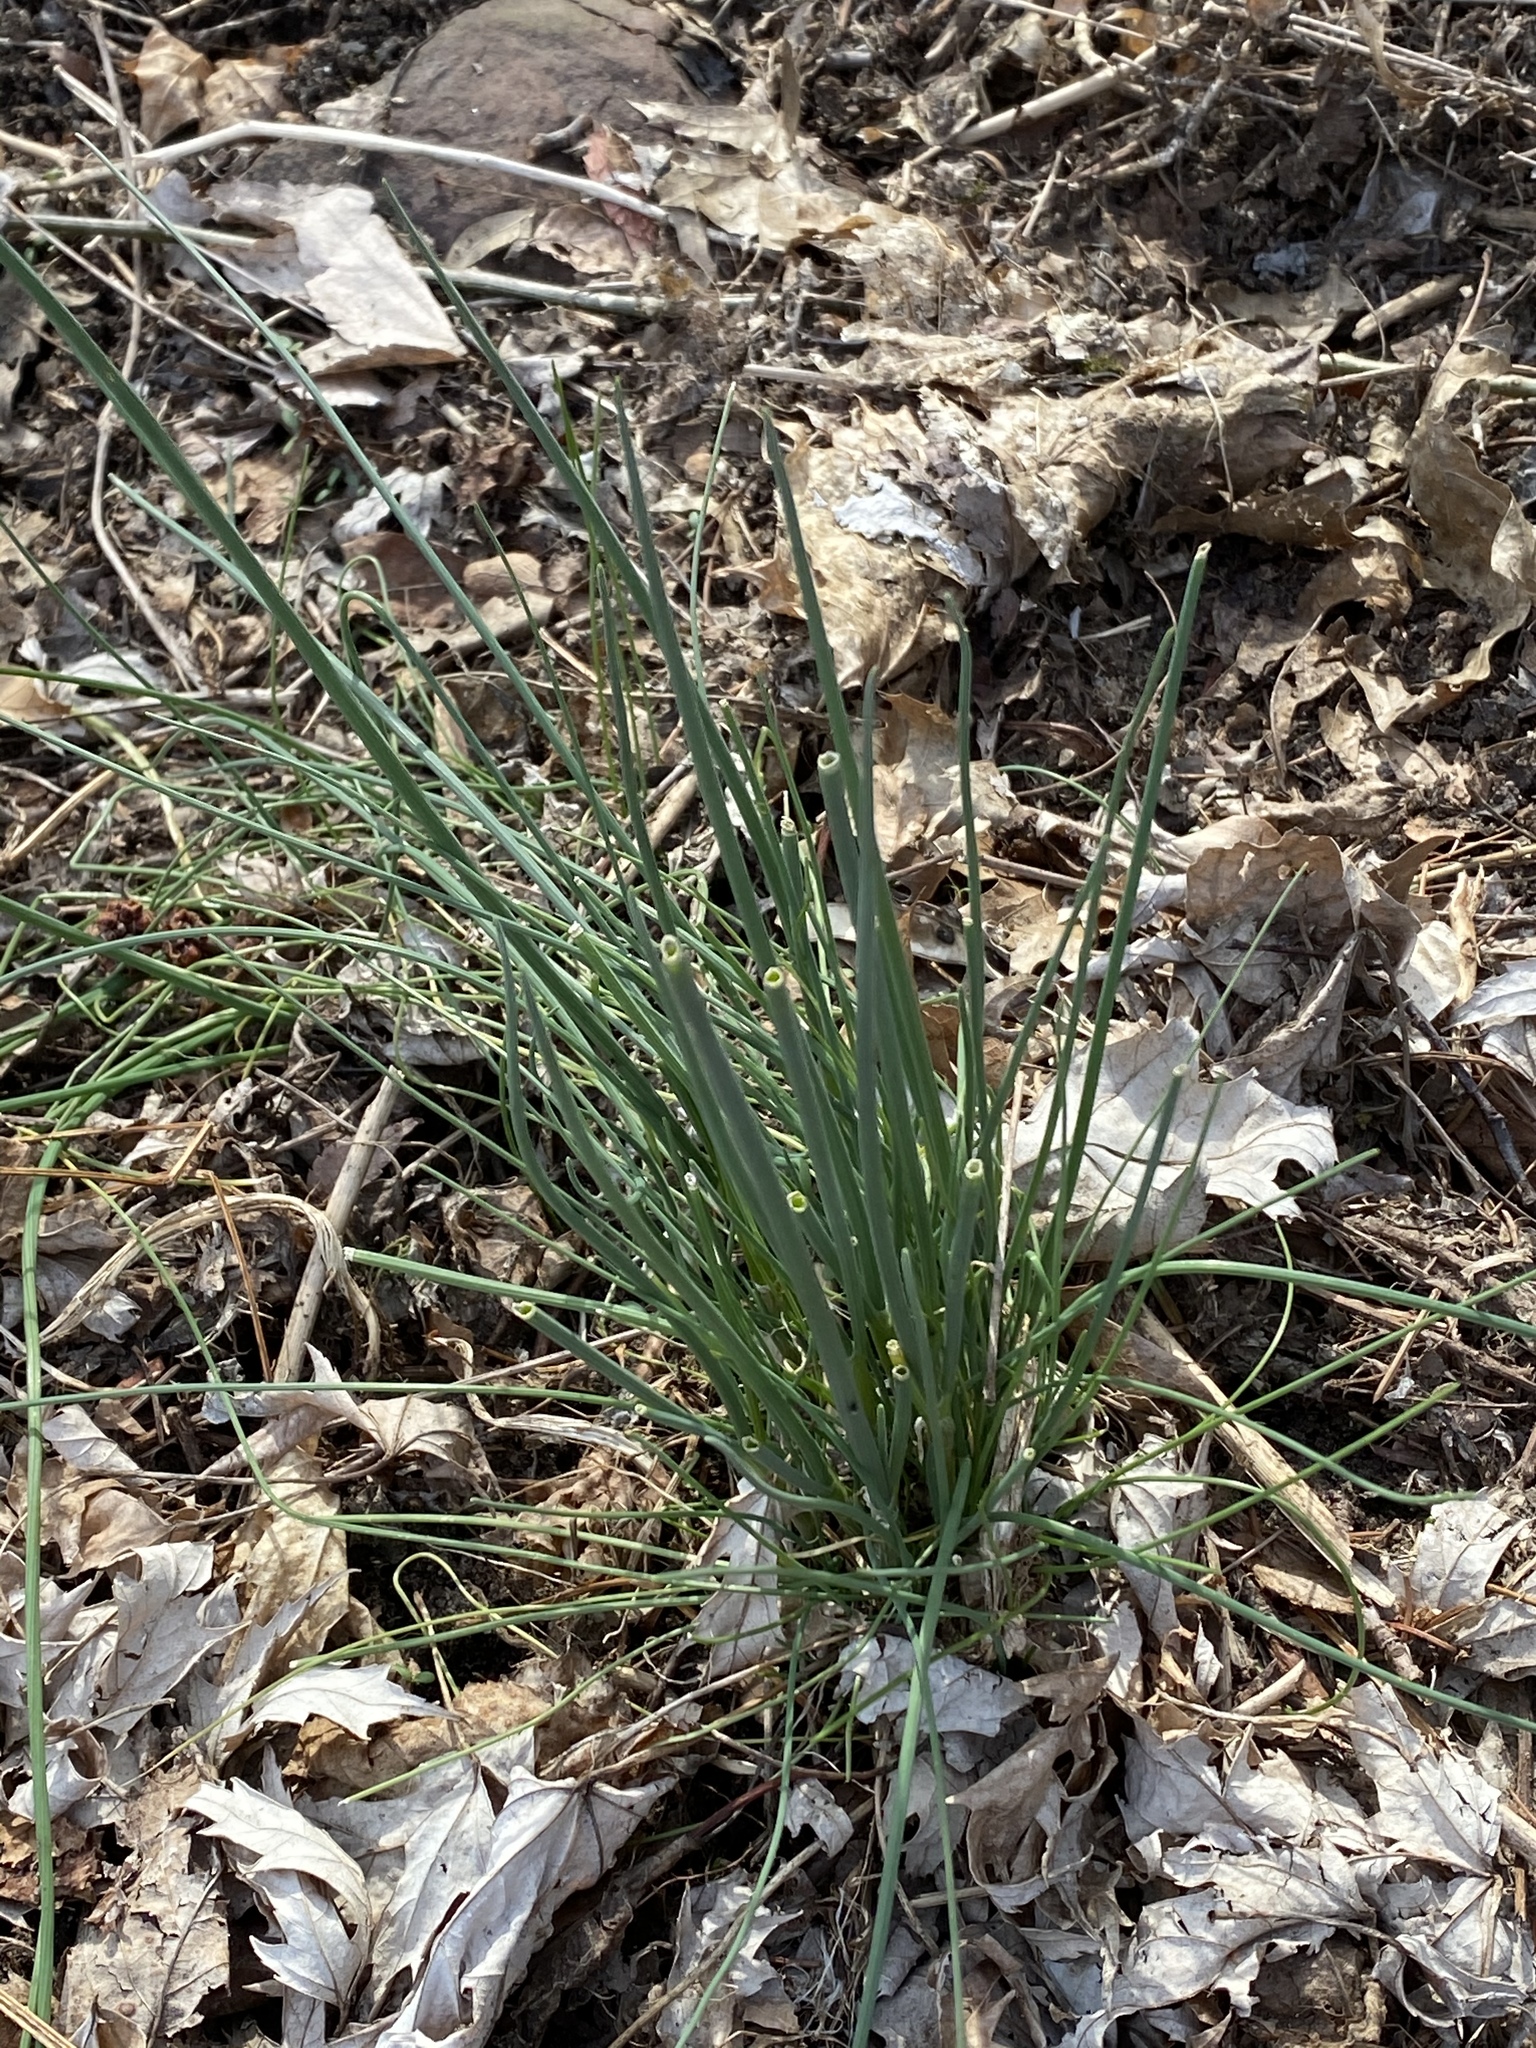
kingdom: Plantae
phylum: Tracheophyta
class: Liliopsida
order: Asparagales
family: Amaryllidaceae
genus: Allium
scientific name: Allium vineale
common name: Crow garlic
